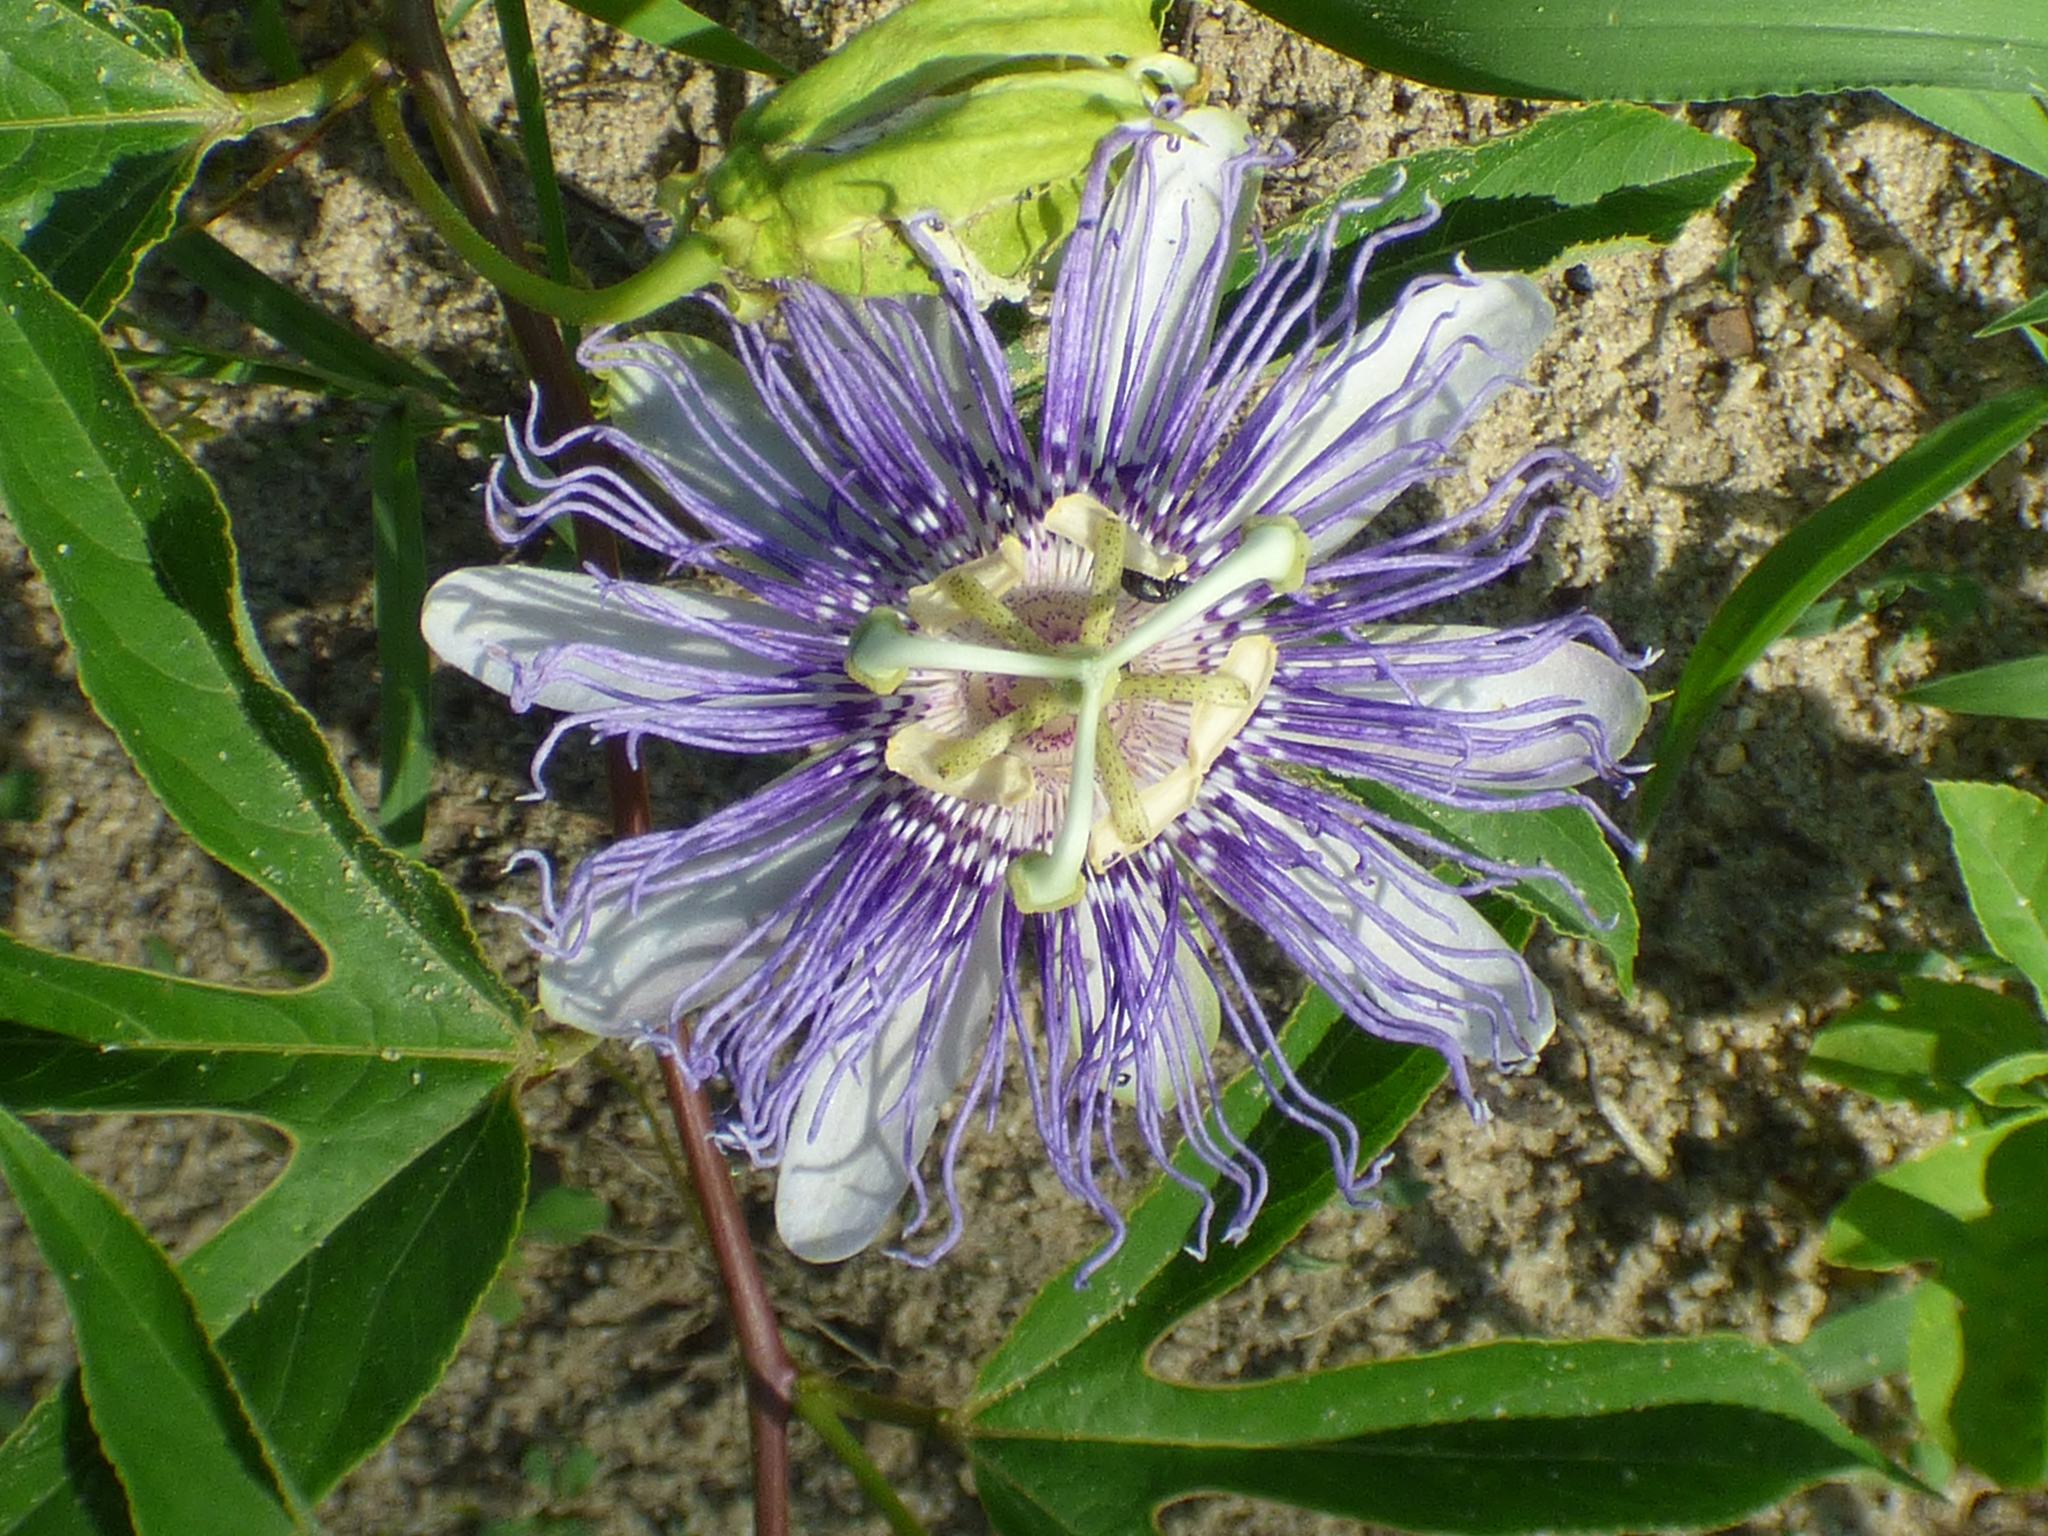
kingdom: Plantae
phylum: Tracheophyta
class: Magnoliopsida
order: Malpighiales
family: Passifloraceae
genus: Passiflora
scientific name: Passiflora incarnata
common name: Apricot-vine
